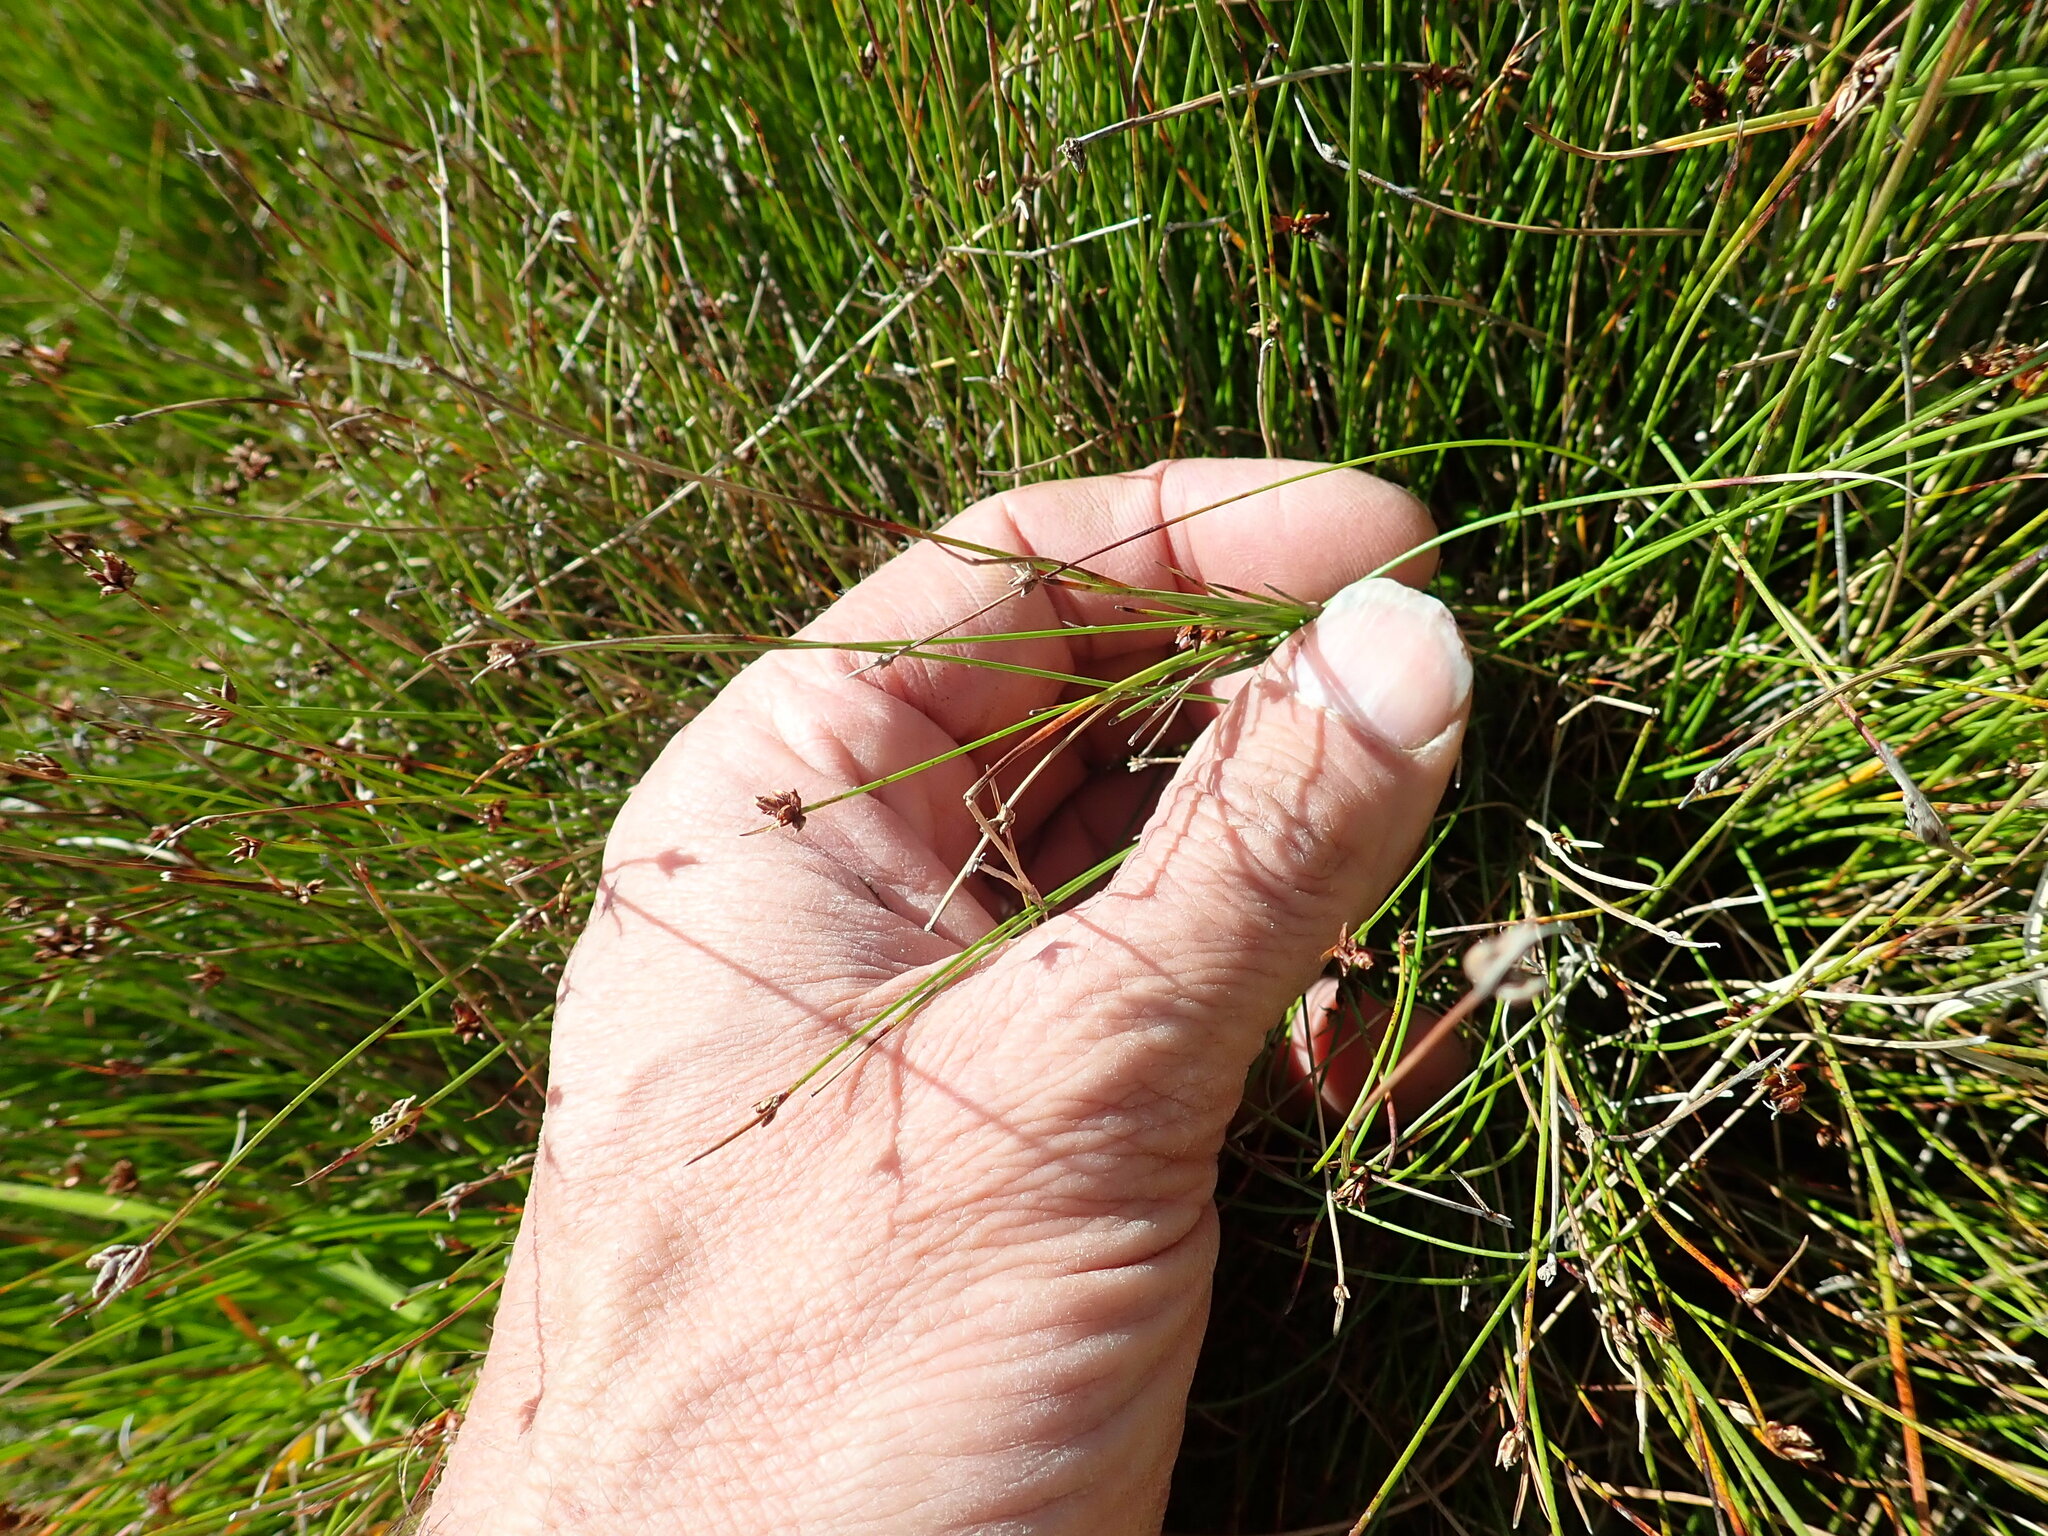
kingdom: Plantae
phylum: Tracheophyta
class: Liliopsida
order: Poales
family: Cyperaceae
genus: Schoenus
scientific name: Schoenus nitens
